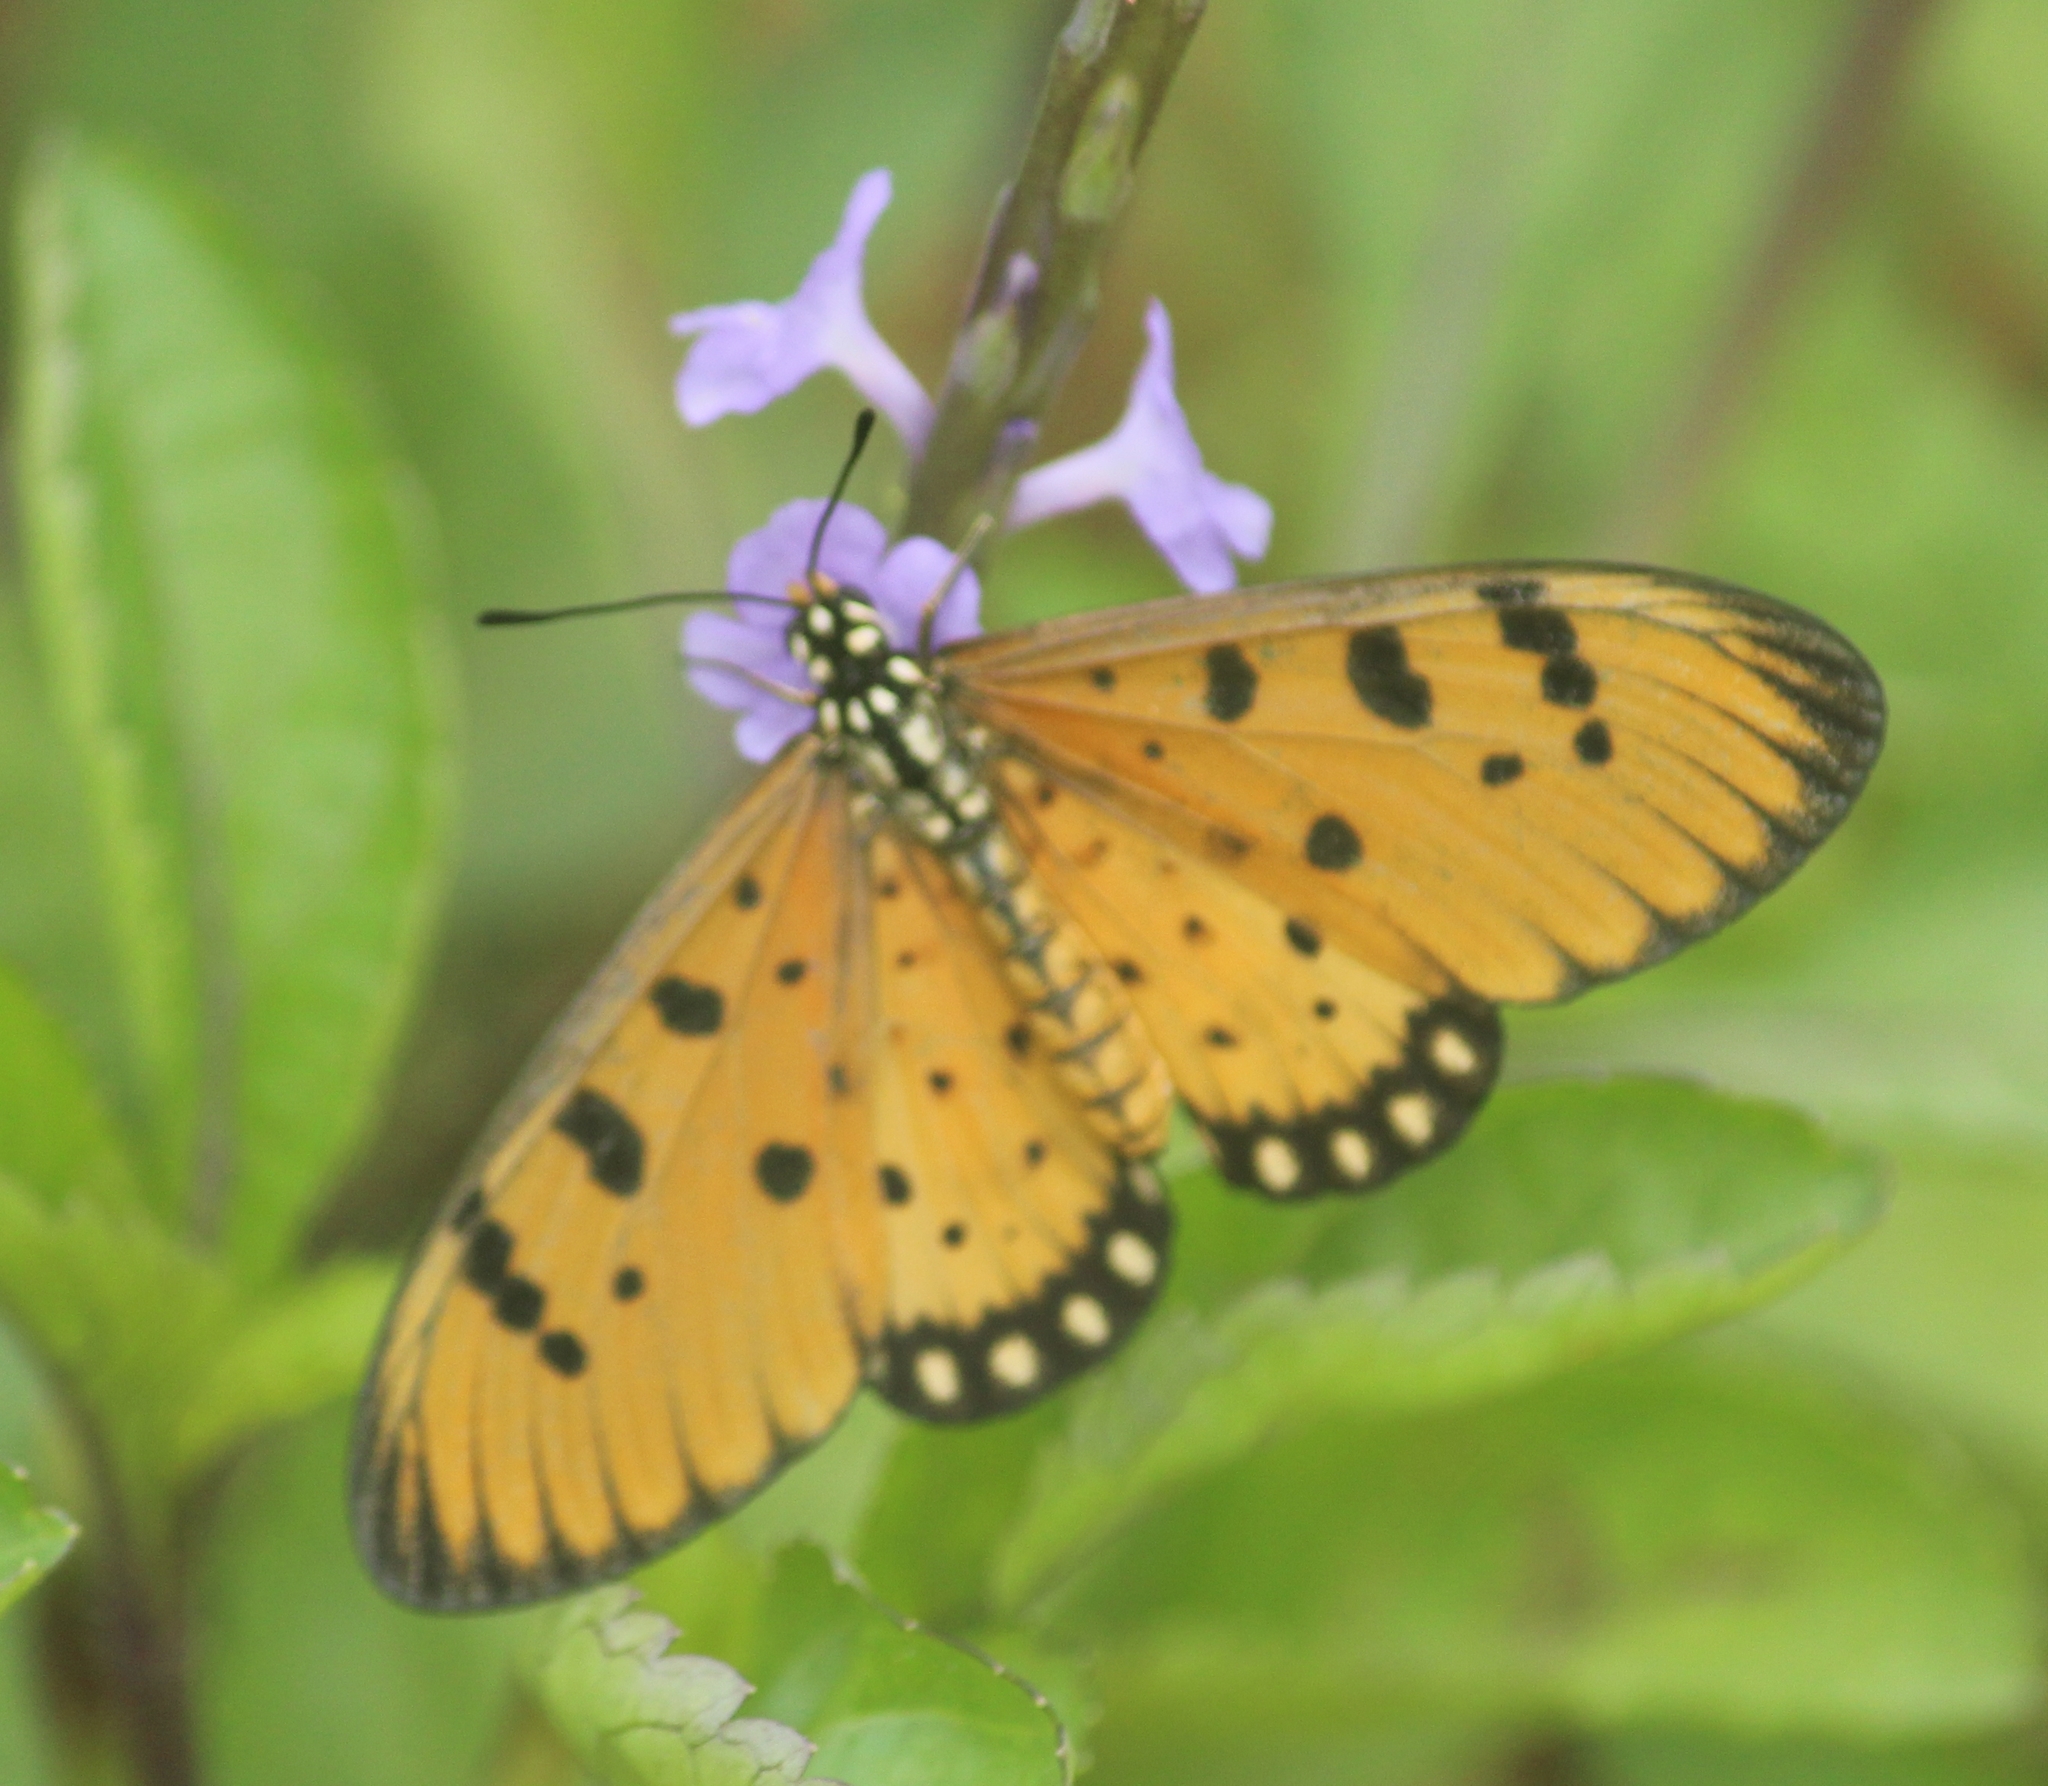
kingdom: Animalia
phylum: Arthropoda
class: Insecta
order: Lepidoptera
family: Nymphalidae
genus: Acraea
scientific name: Acraea terpsicore
